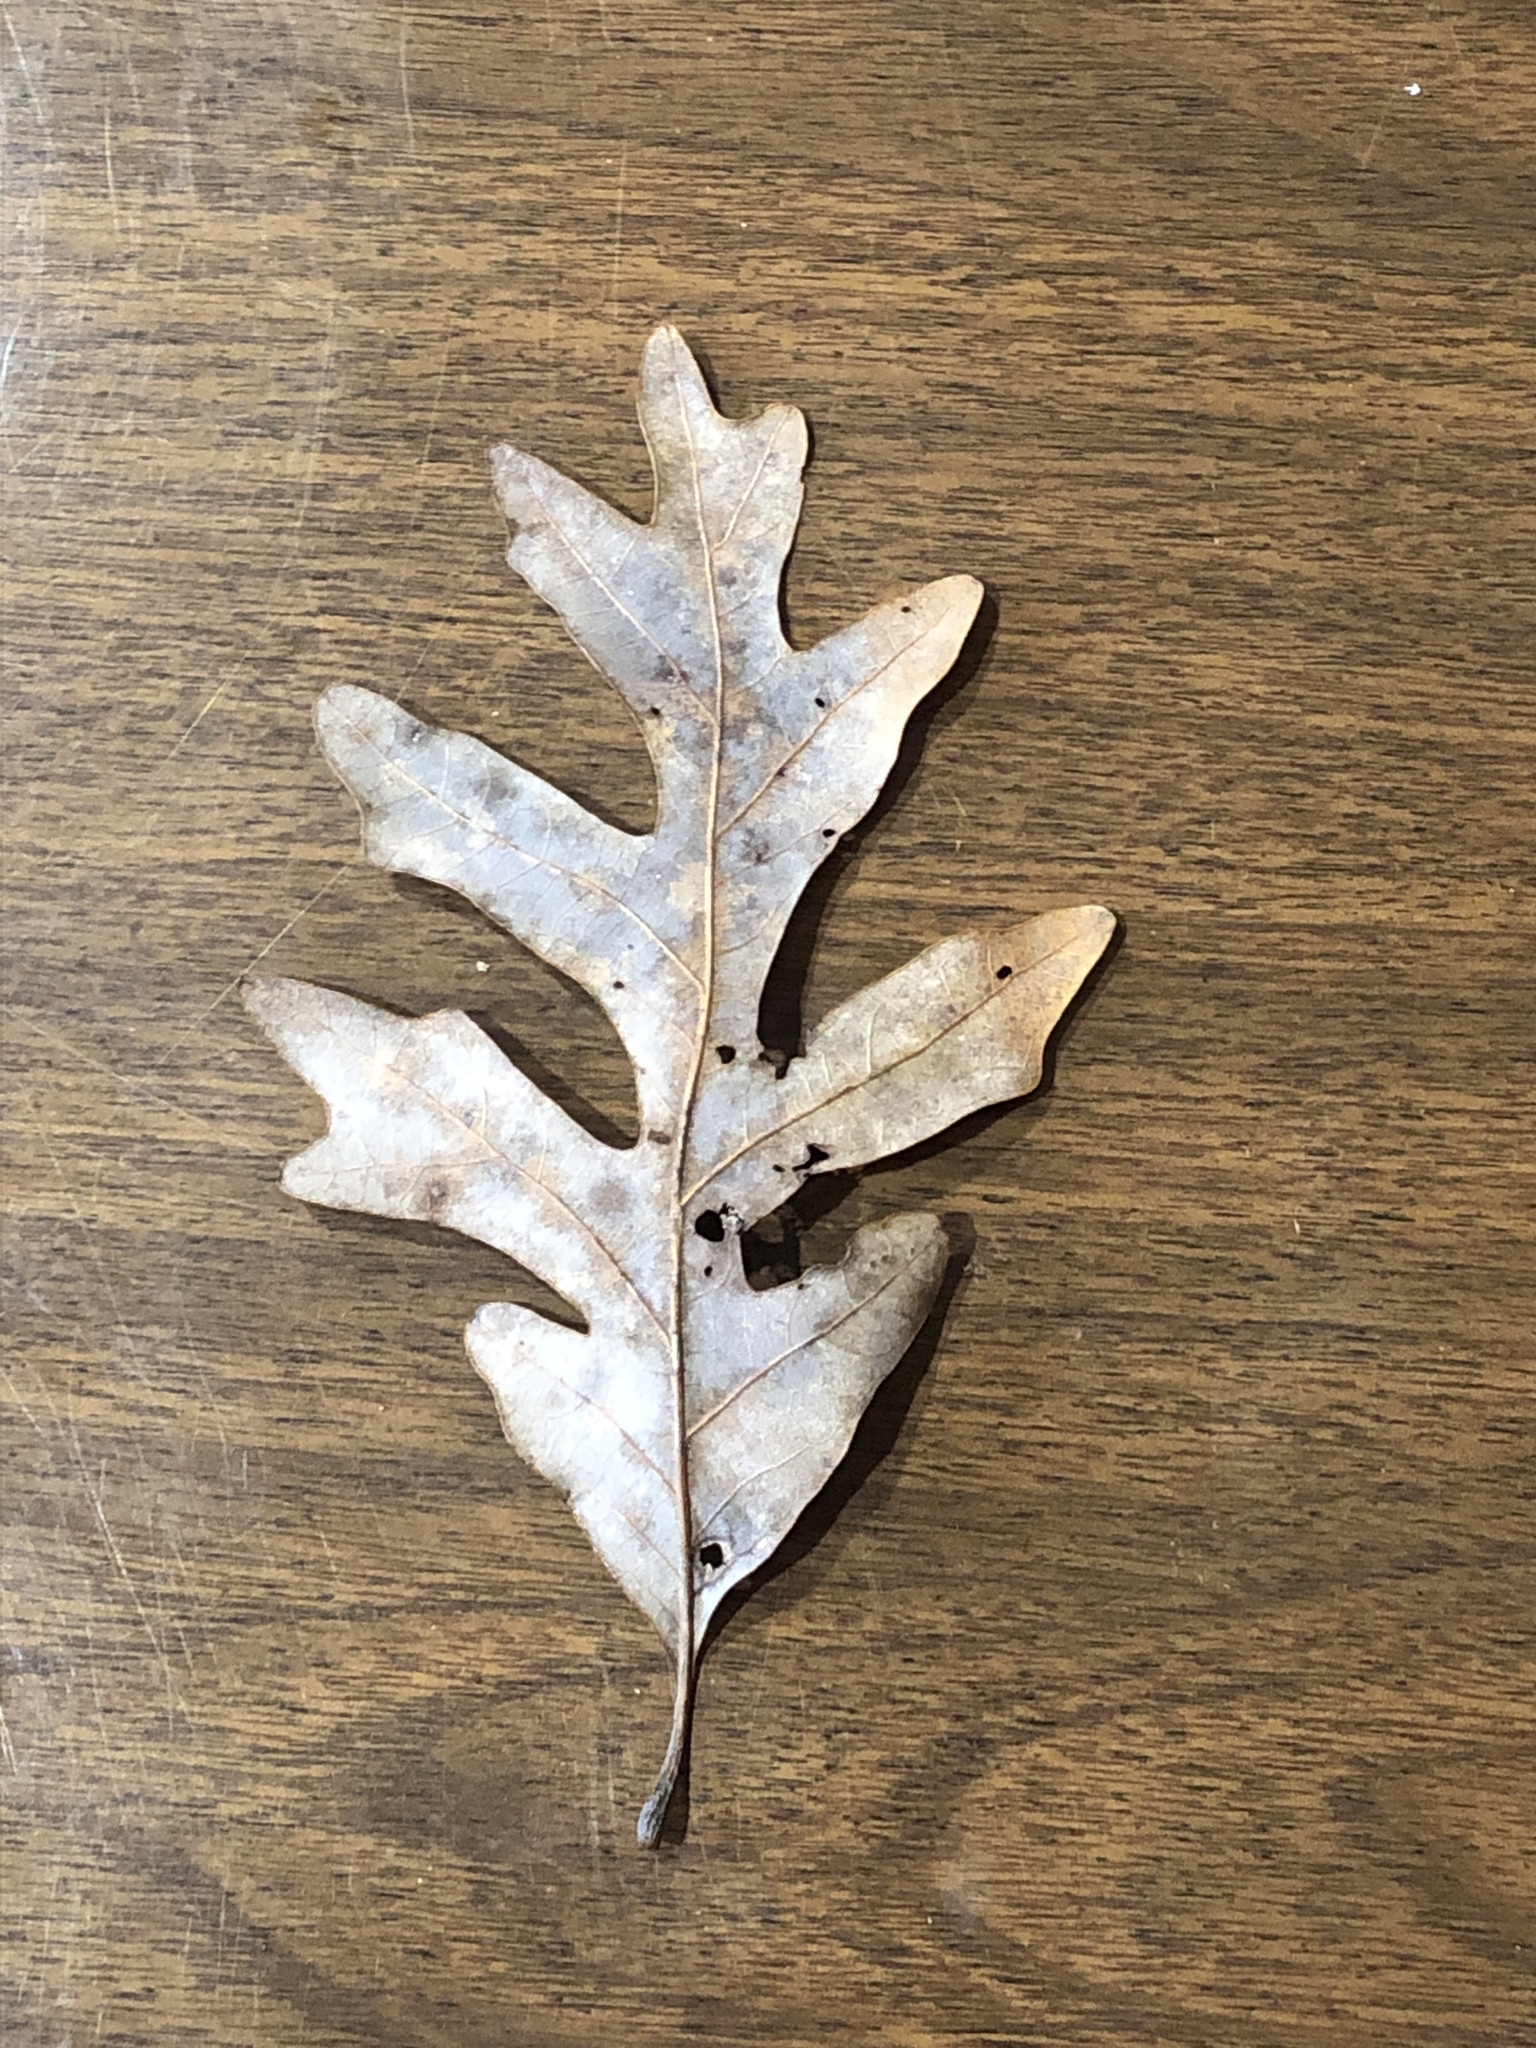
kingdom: Plantae
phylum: Tracheophyta
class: Magnoliopsida
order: Fagales
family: Fagaceae
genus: Quercus
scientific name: Quercus alba
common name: White oak
